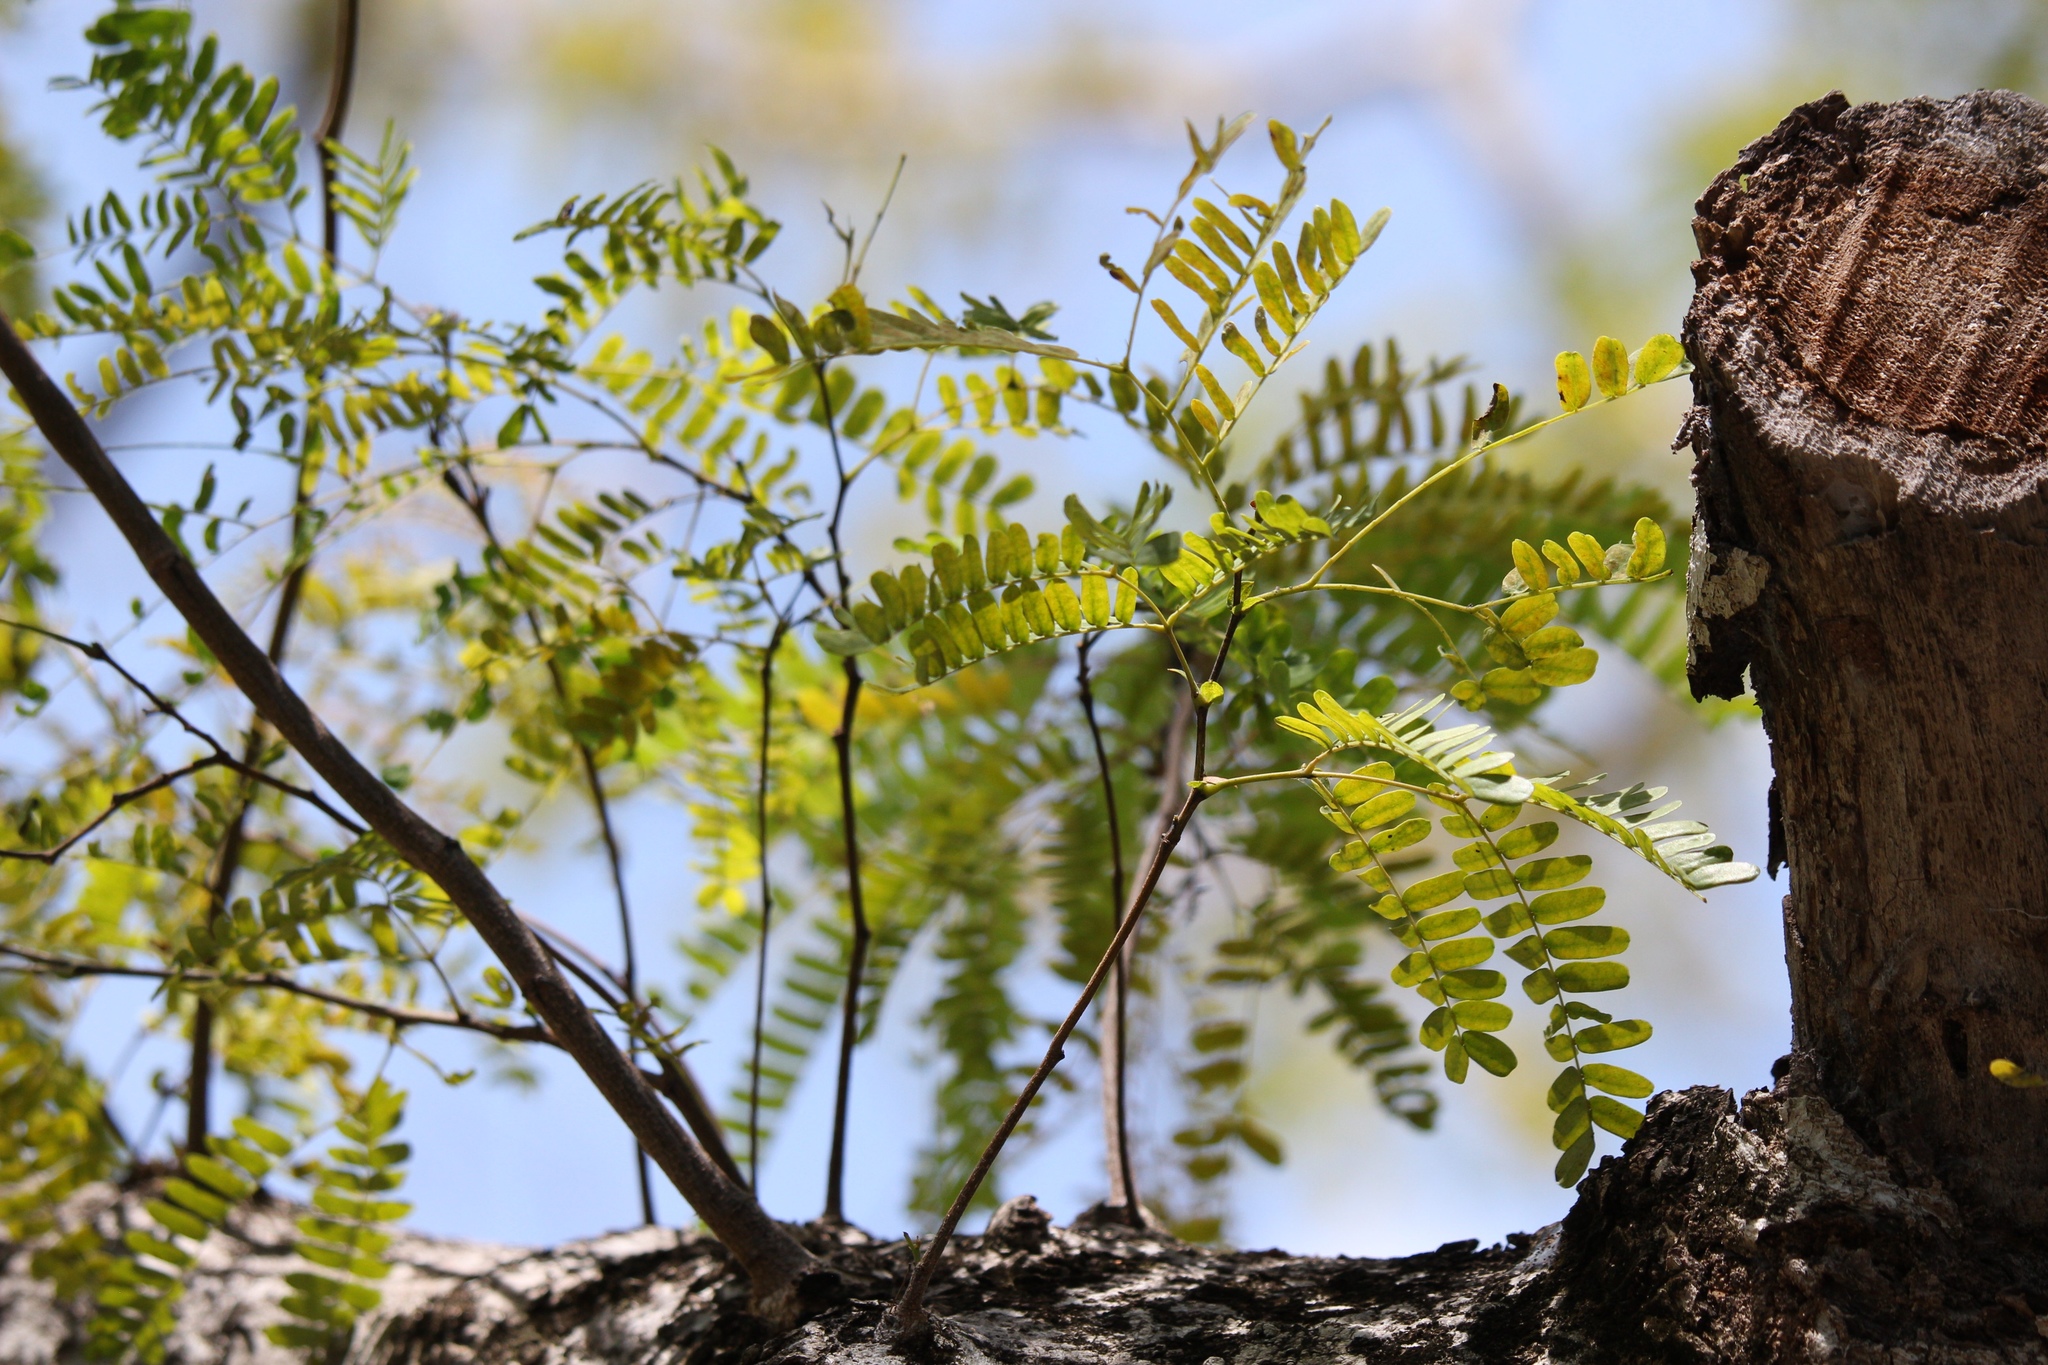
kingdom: Plantae
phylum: Tracheophyta
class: Magnoliopsida
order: Fabales
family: Fabaceae
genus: Lysiloma
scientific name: Lysiloma latisiliquum
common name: Wild tamarind
